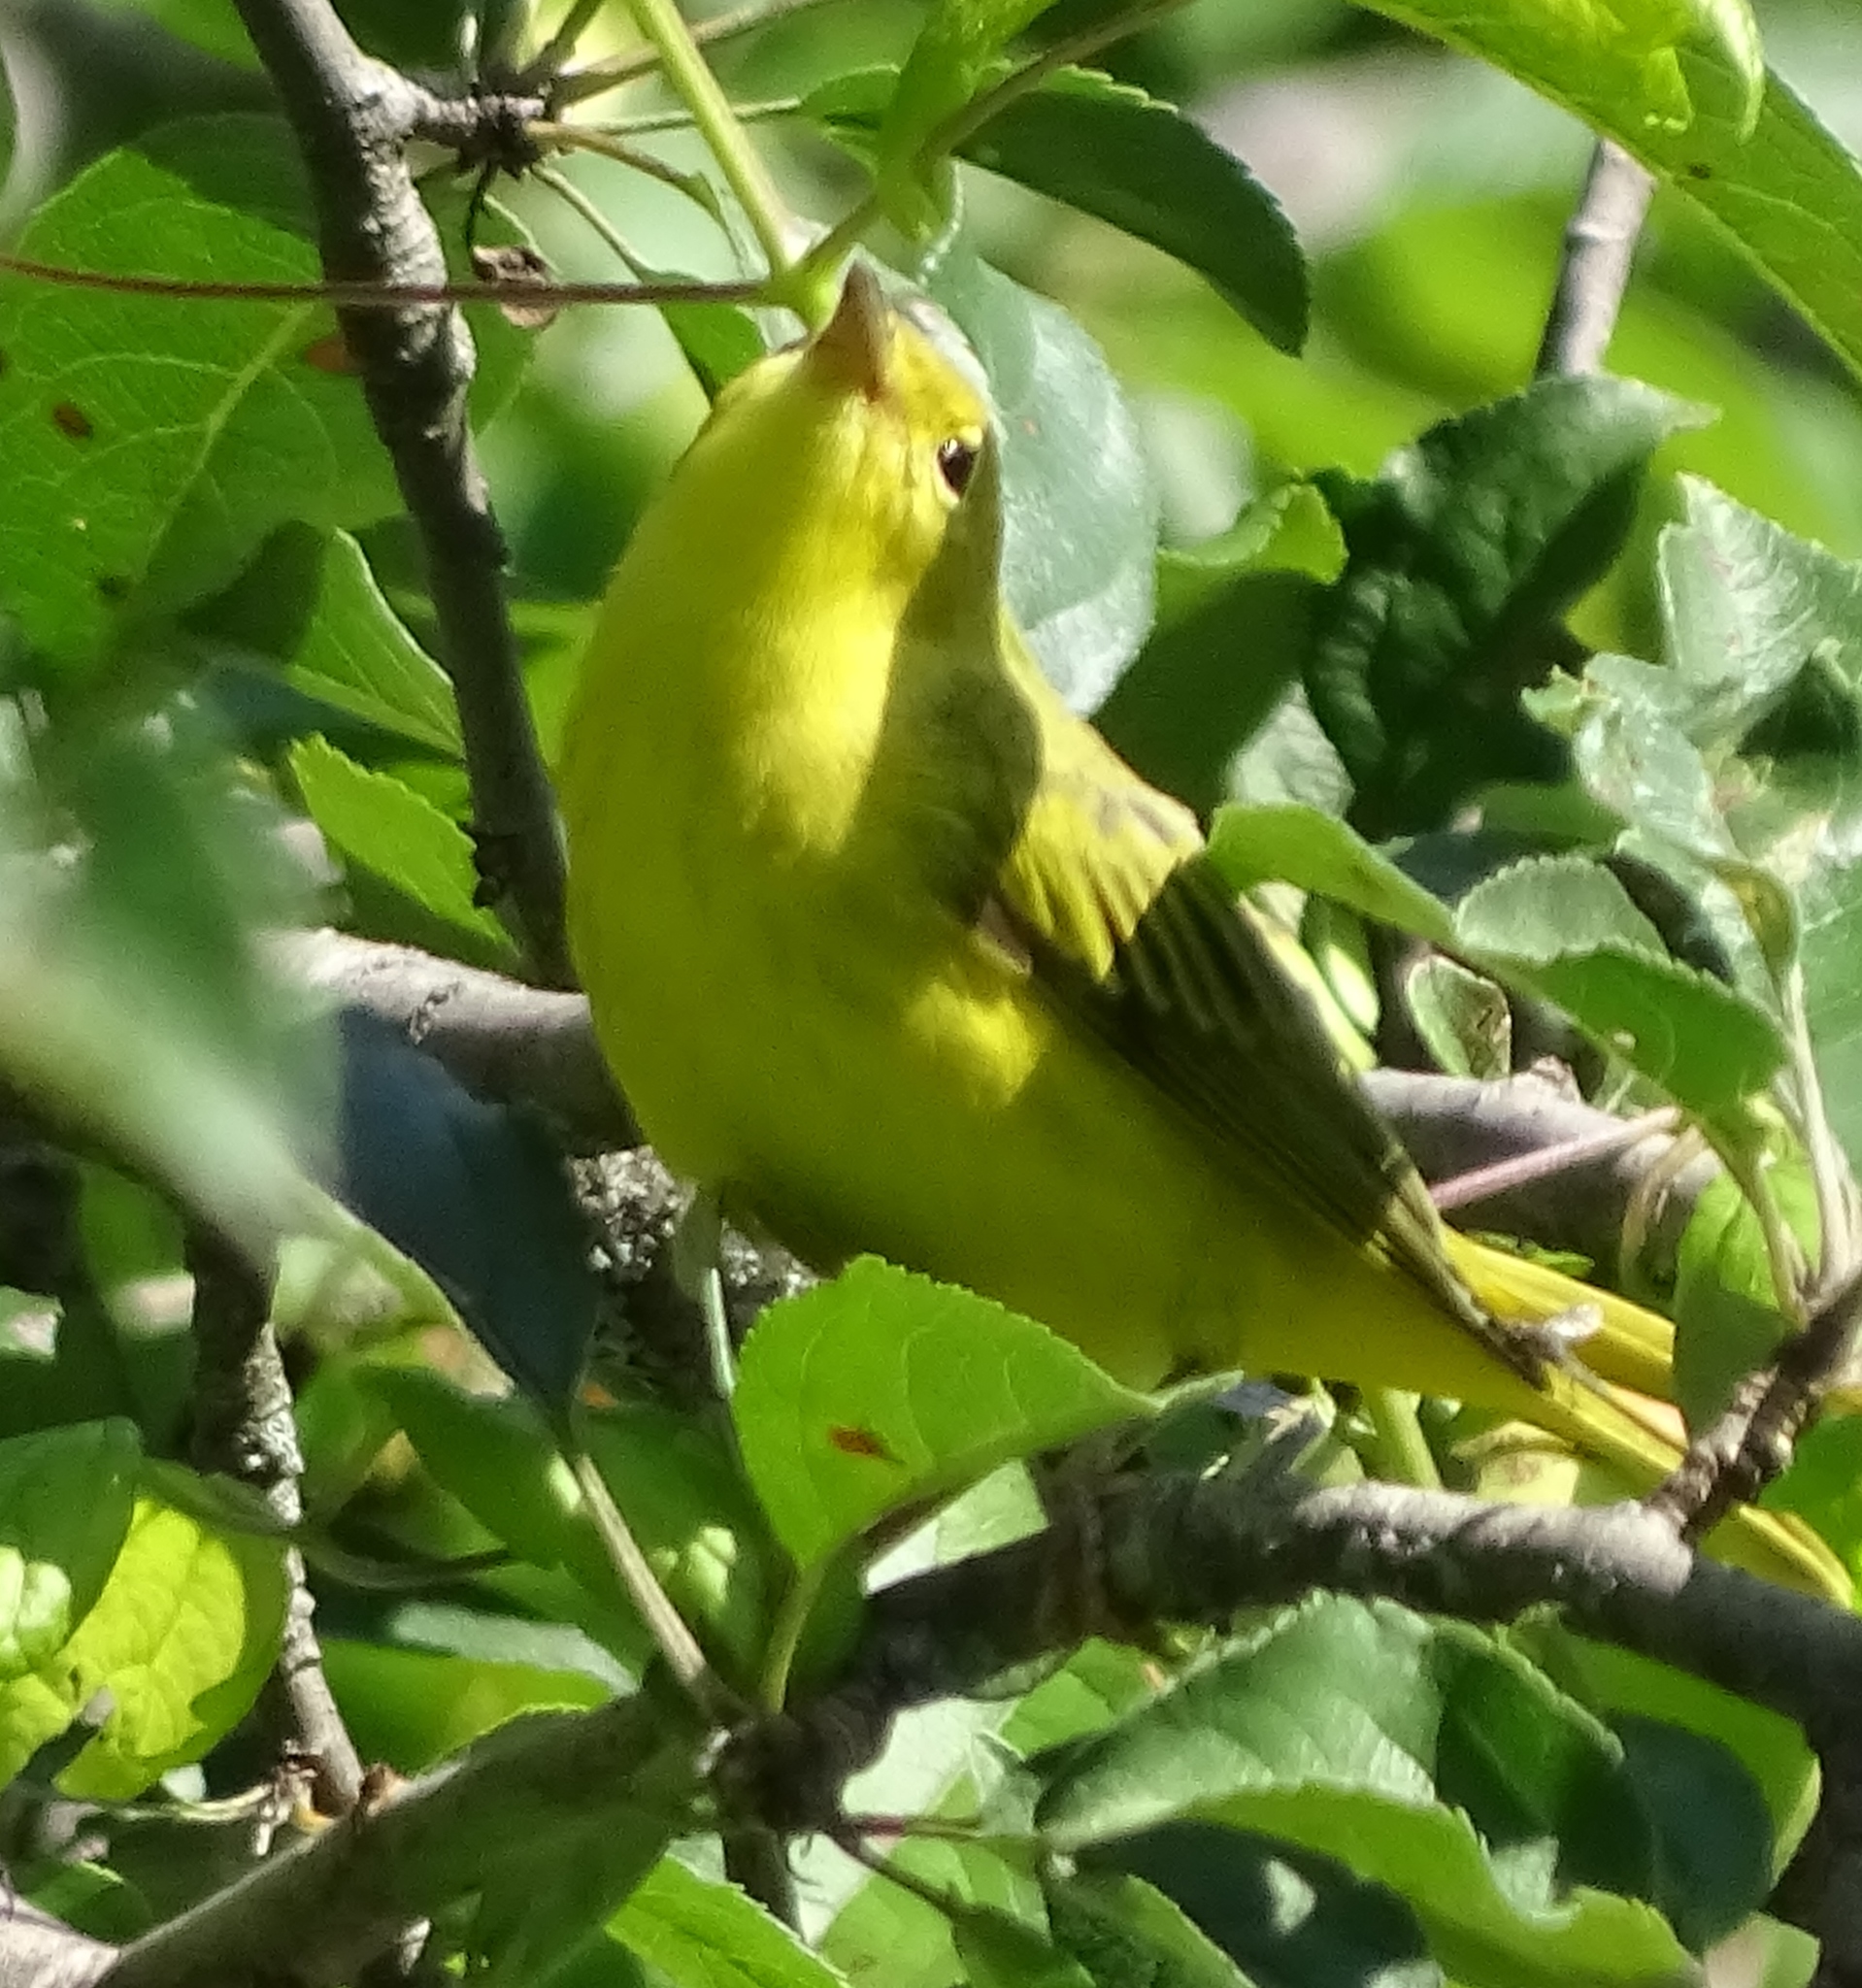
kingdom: Animalia
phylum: Chordata
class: Aves
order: Passeriformes
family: Parulidae
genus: Setophaga
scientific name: Setophaga petechia
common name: Yellow warbler
